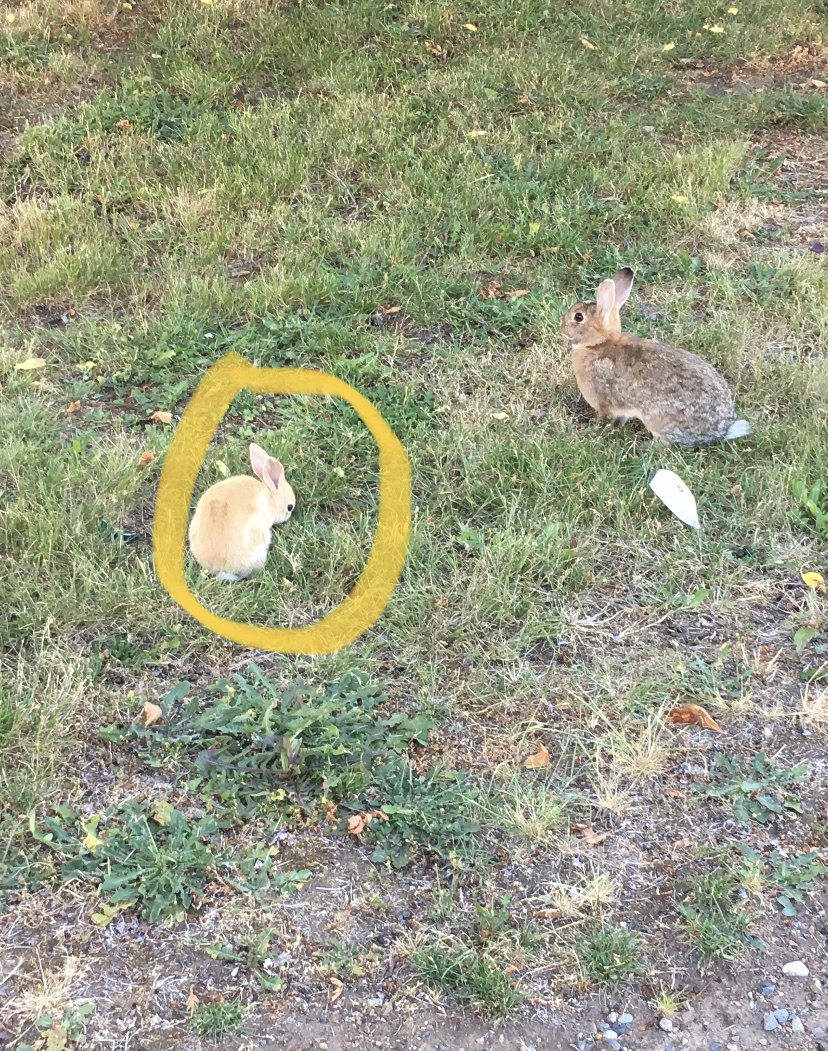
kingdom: Animalia
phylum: Chordata
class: Mammalia
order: Lagomorpha
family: Leporidae
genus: Oryctolagus
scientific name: Oryctolagus cuniculus
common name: European rabbit
